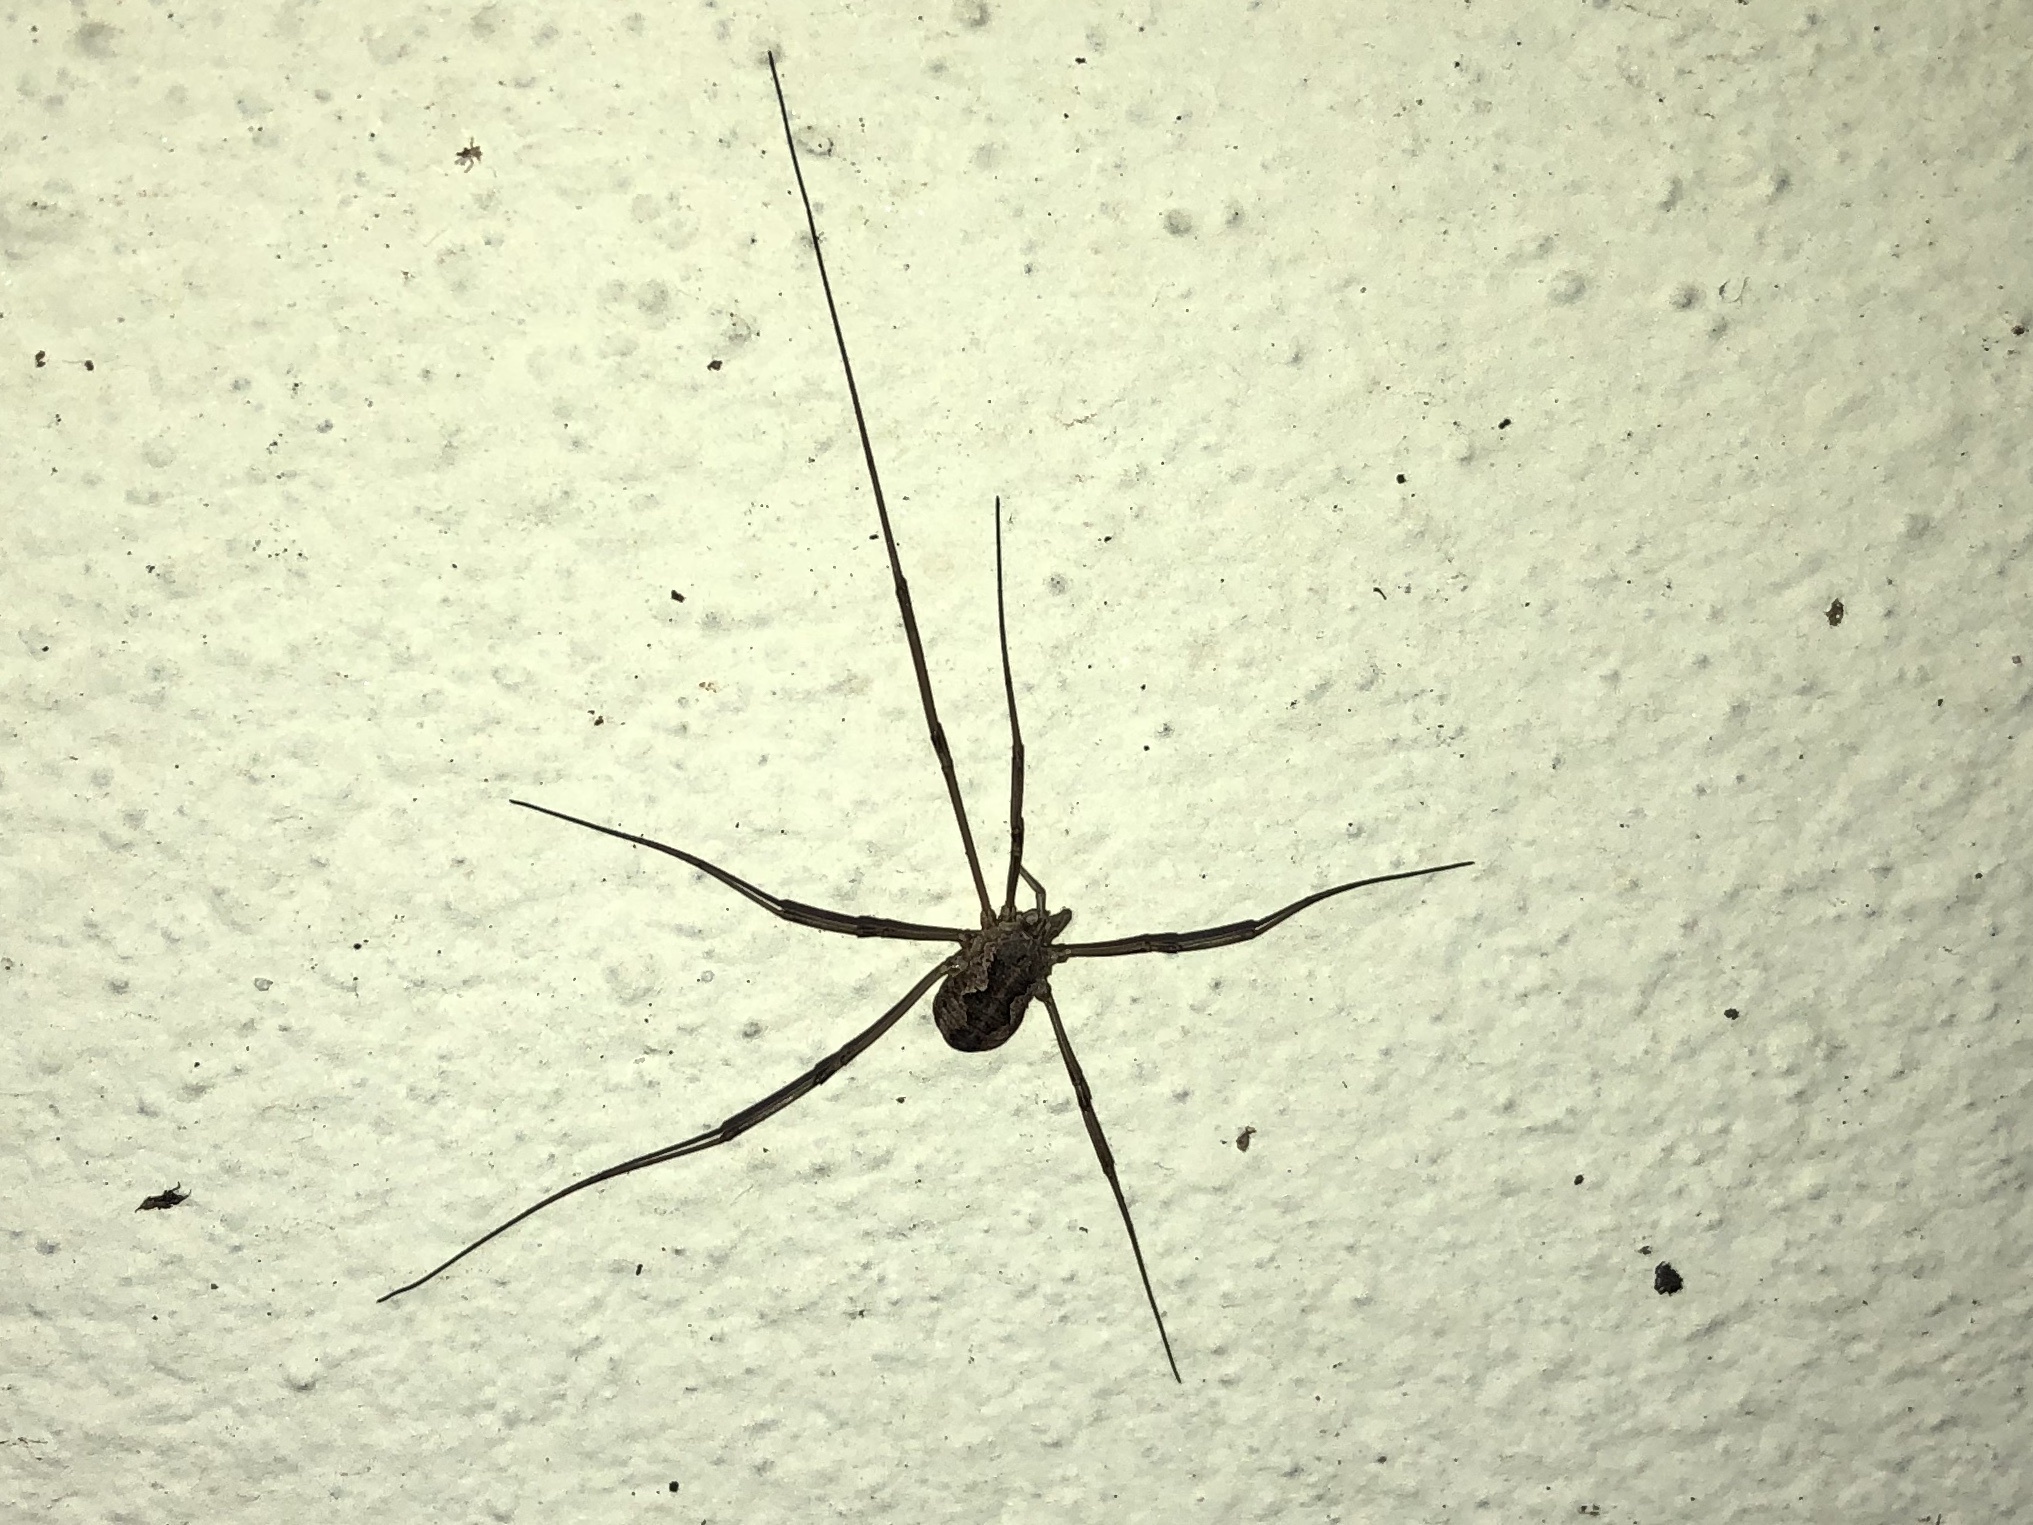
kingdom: Animalia
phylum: Arthropoda
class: Arachnida
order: Opiliones
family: Phalangiidae
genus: Phalangium
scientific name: Phalangium opilio
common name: Daddy longleg
